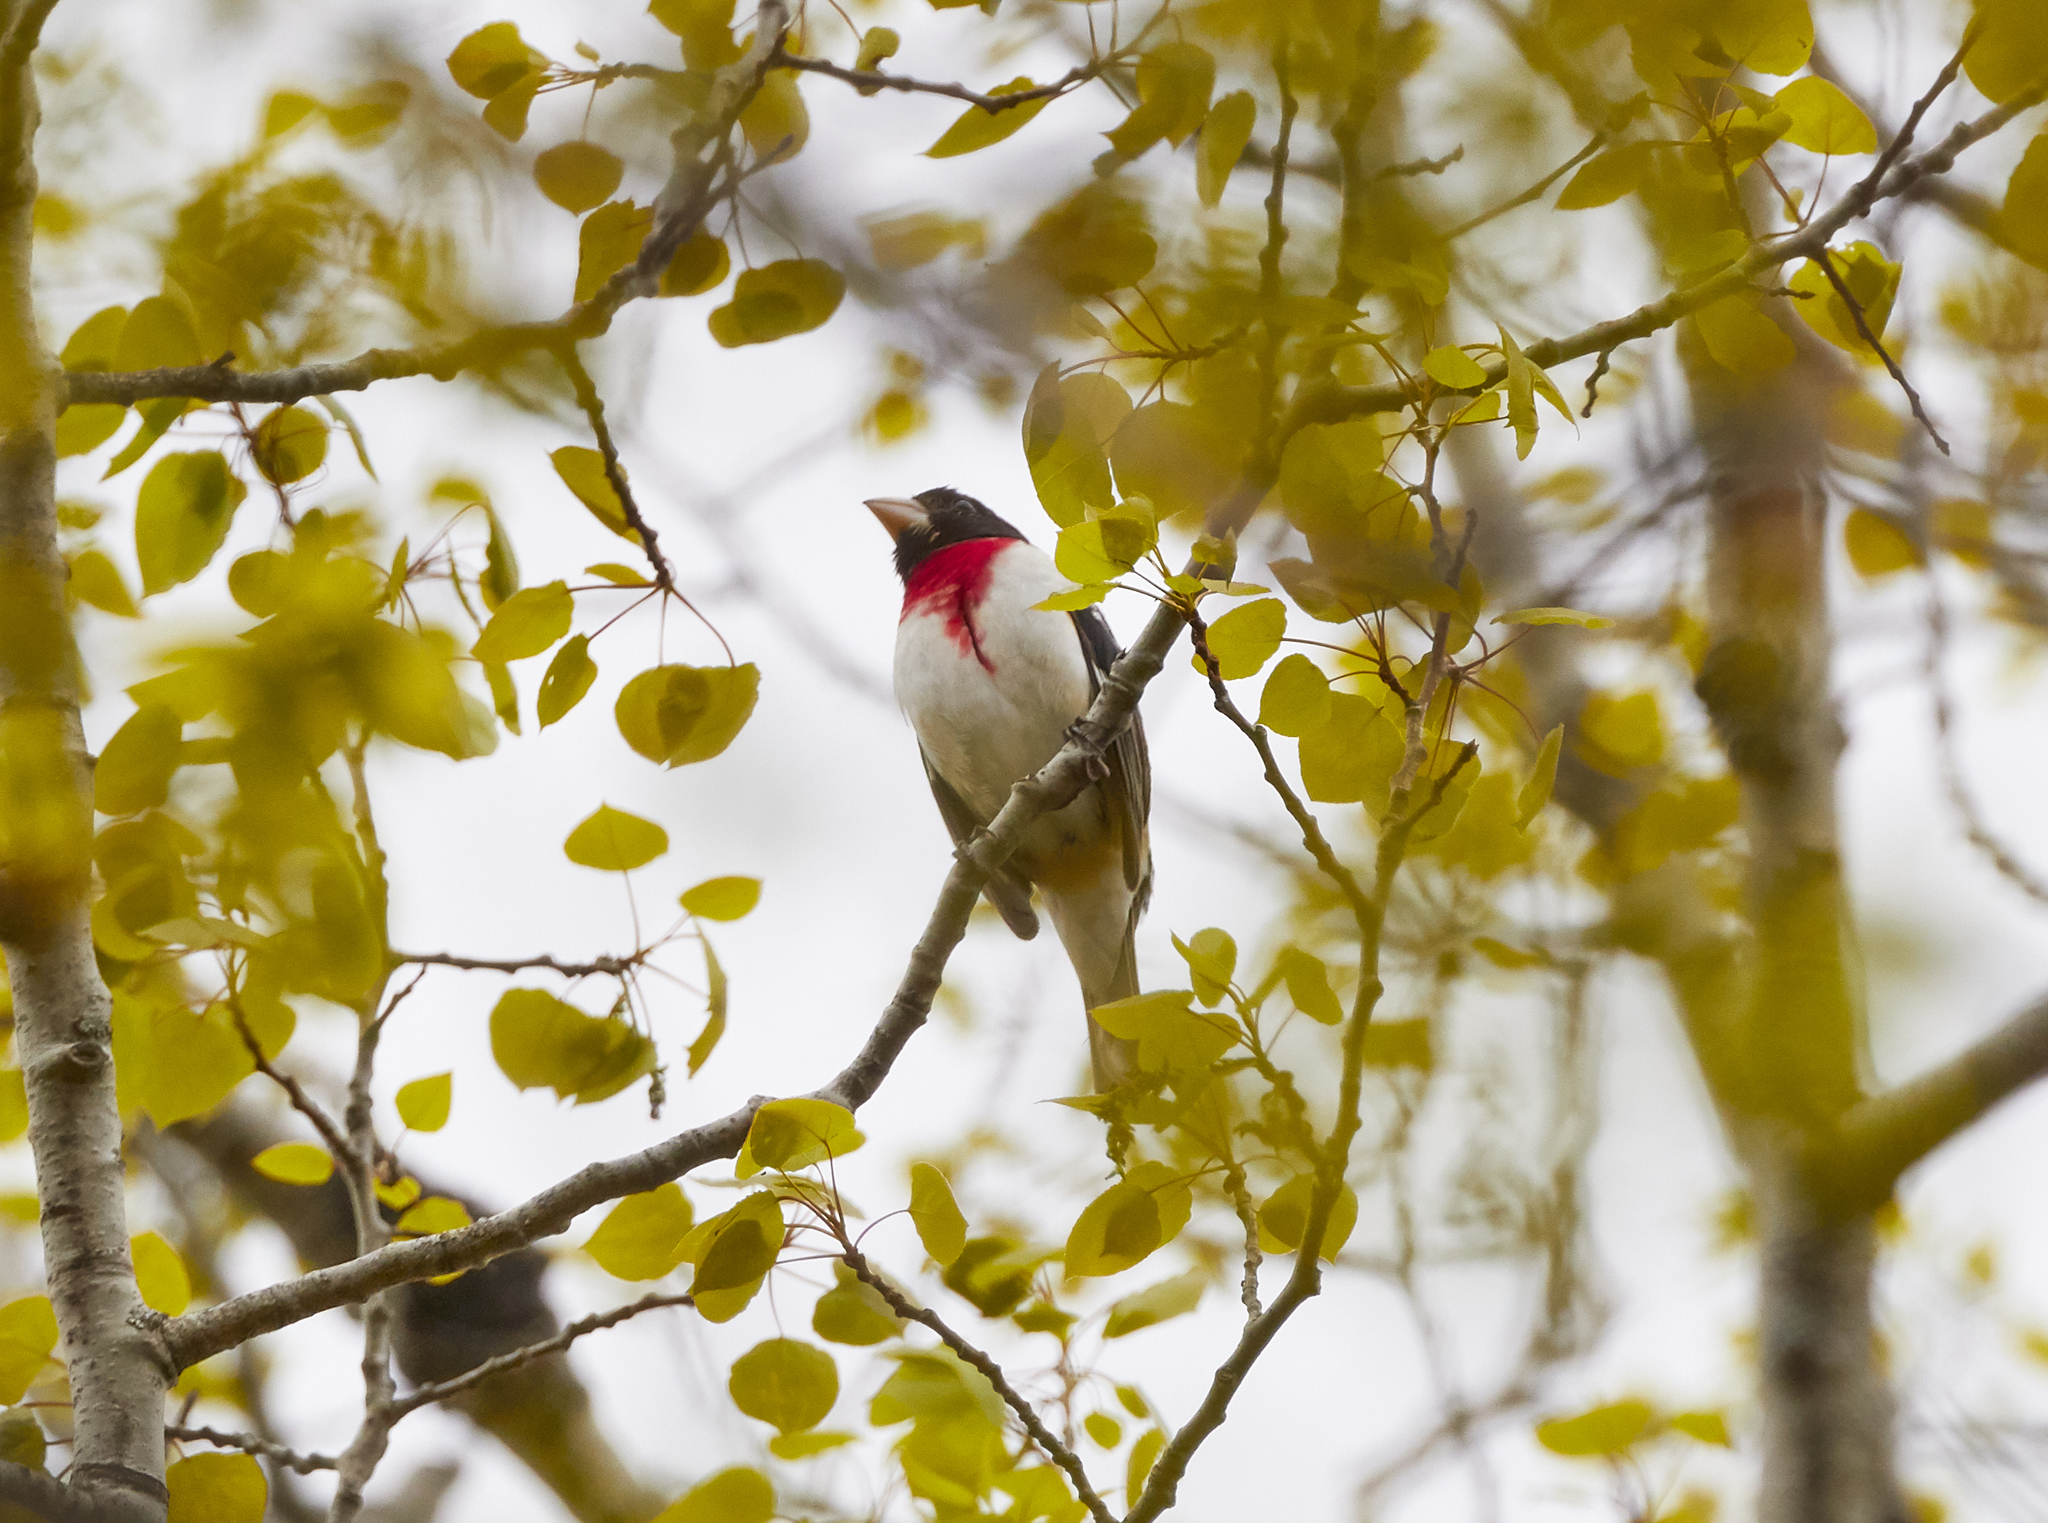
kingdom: Animalia
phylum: Chordata
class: Aves
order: Passeriformes
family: Cardinalidae
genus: Pheucticus
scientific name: Pheucticus ludovicianus
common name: Rose-breasted grosbeak
